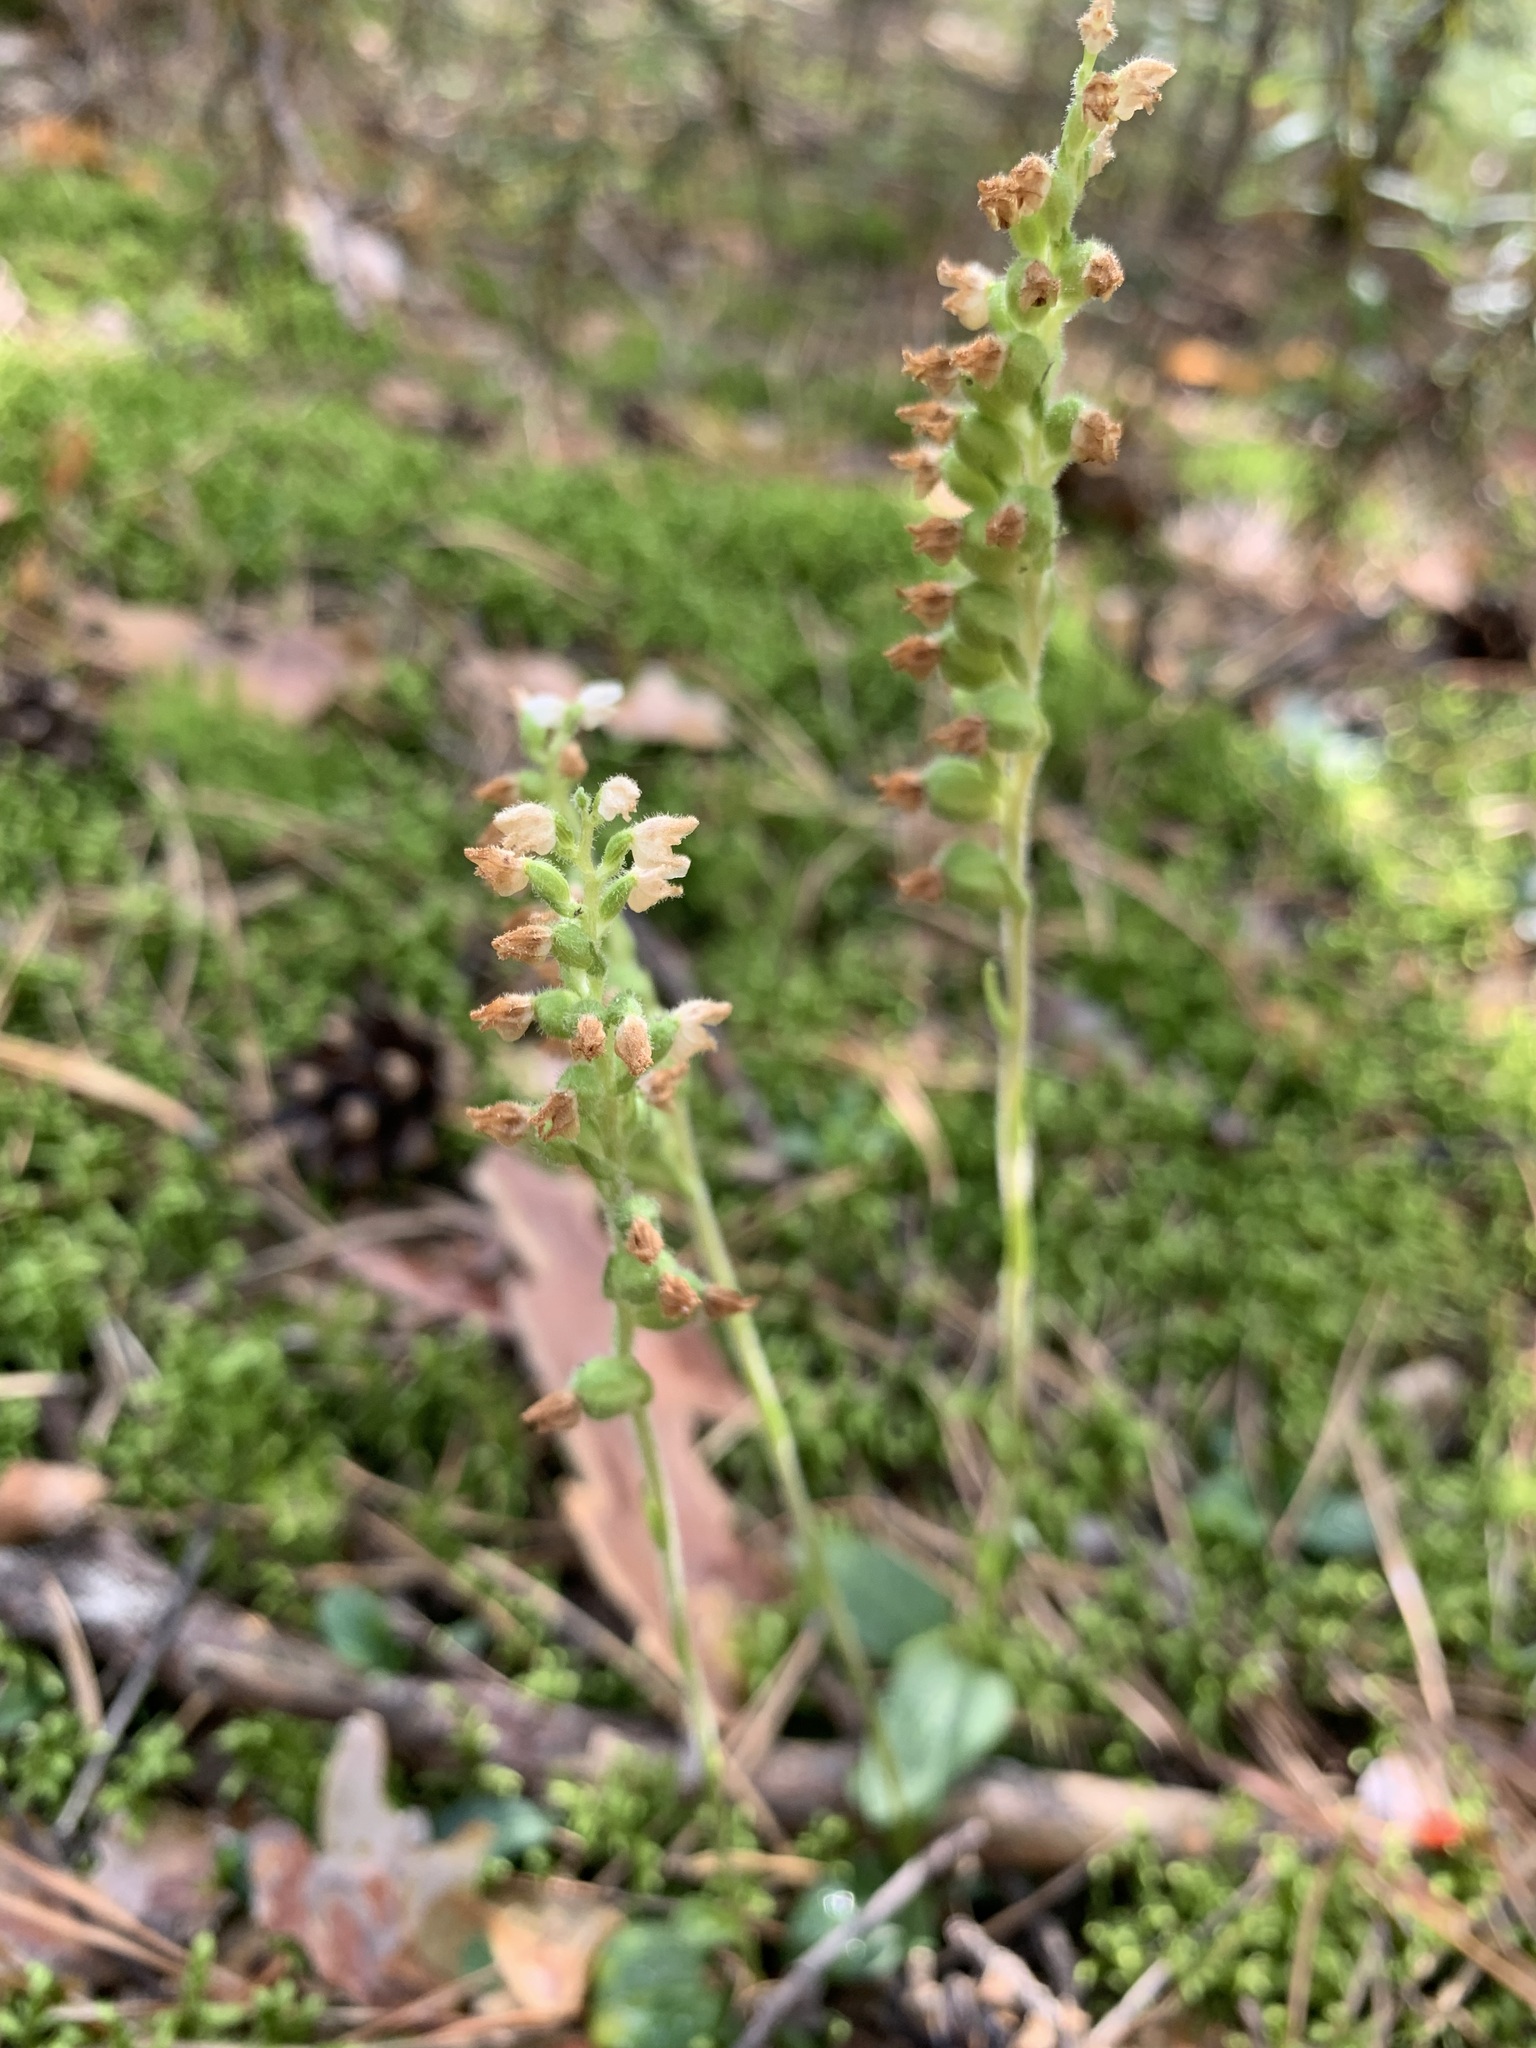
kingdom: Plantae
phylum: Tracheophyta
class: Liliopsida
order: Asparagales
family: Orchidaceae
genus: Goodyera
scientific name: Goodyera repens
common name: Creeping lady's-tresses
